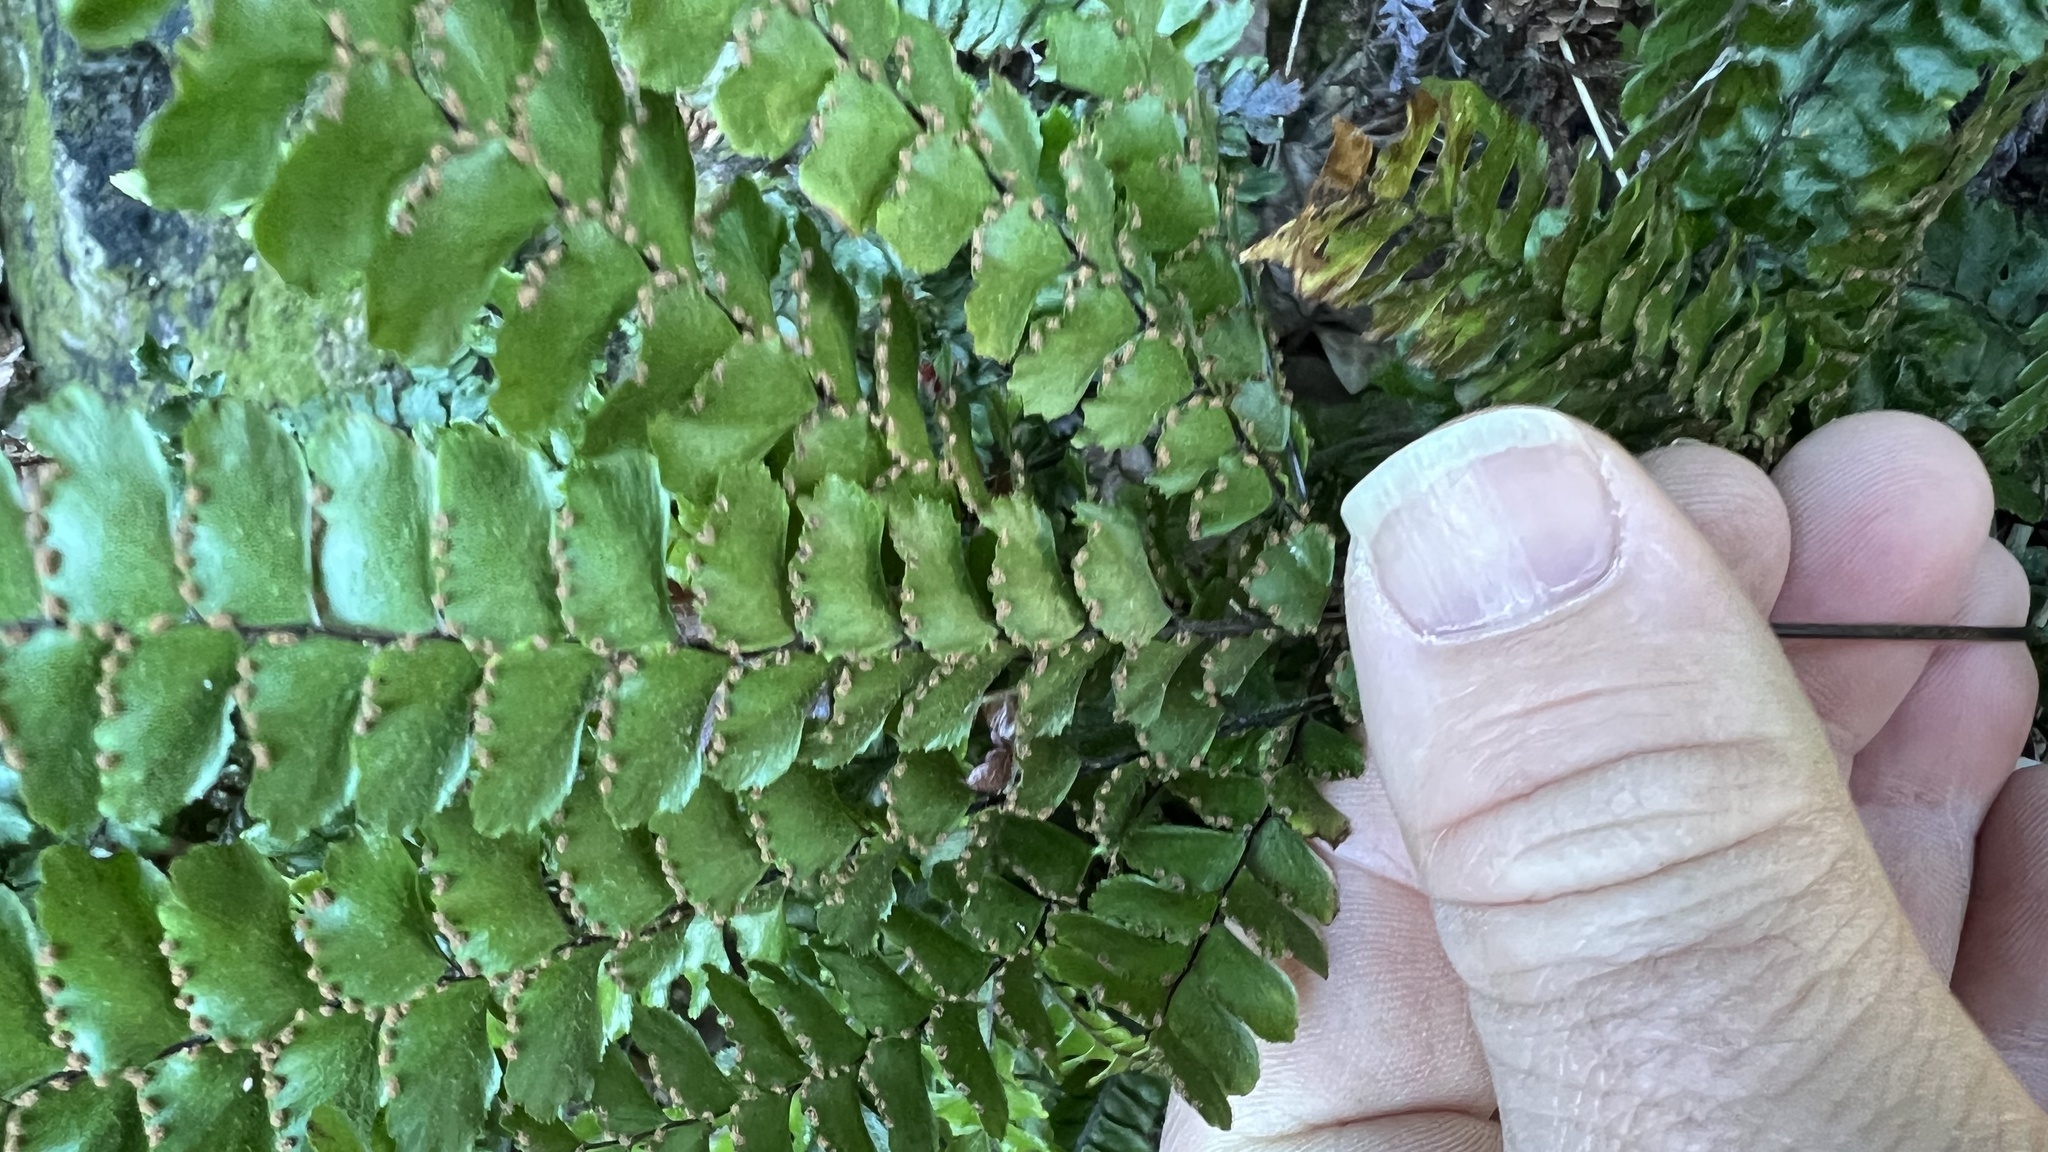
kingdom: Plantae
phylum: Tracheophyta
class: Polypodiopsida
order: Polypodiales
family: Pteridaceae
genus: Adiantum
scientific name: Adiantum hispidulum
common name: Rough maidenhair
